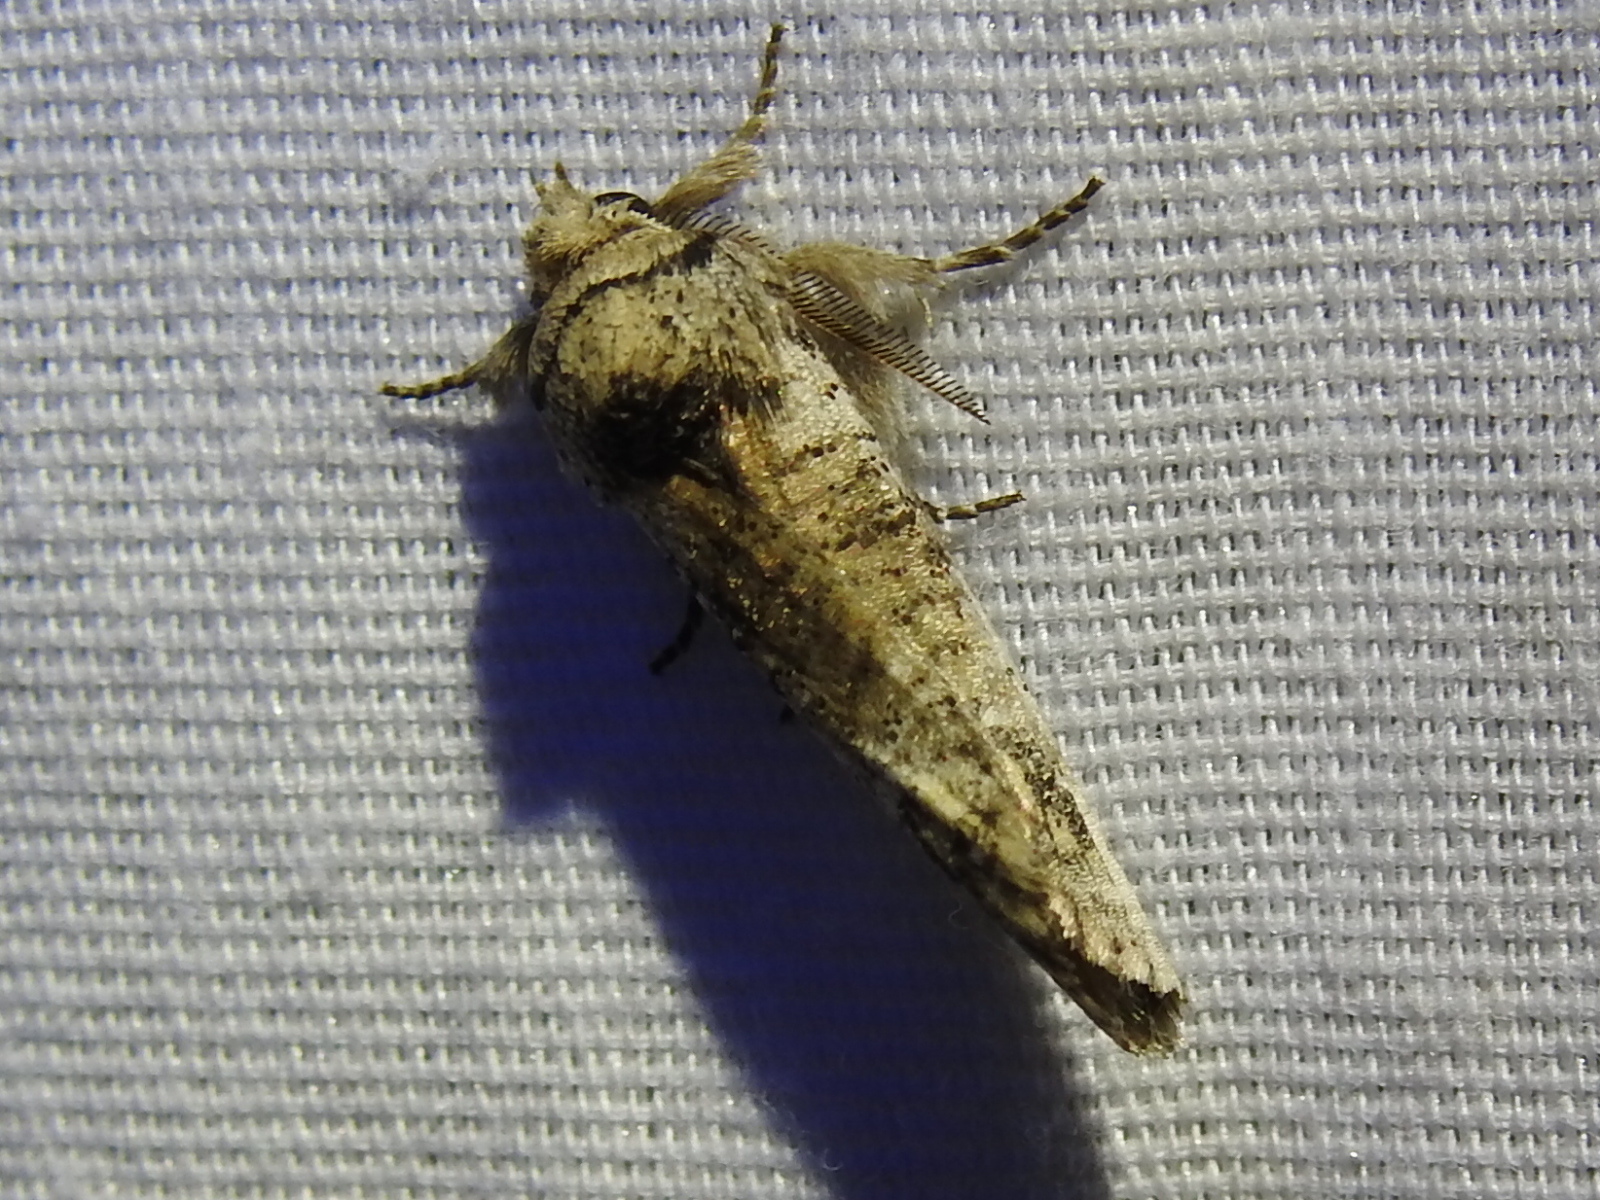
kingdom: Animalia
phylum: Arthropoda
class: Insecta
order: Lepidoptera
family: Erebidae
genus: Aon
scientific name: Aon noctuiformis
